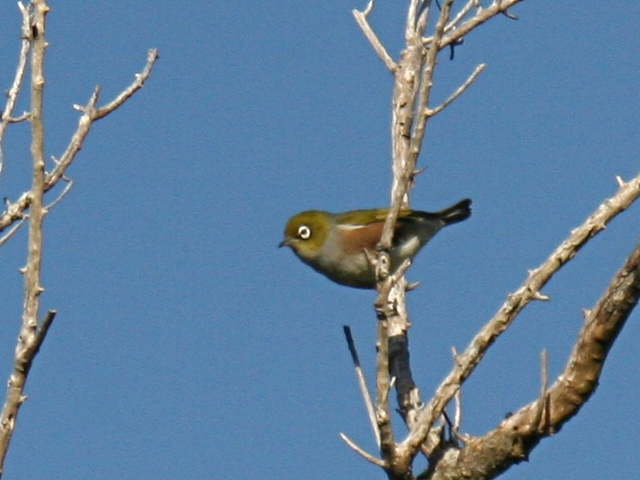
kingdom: Animalia
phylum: Chordata
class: Aves
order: Passeriformes
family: Zosteropidae
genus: Zosterops
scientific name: Zosterops lateralis
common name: Silvereye
